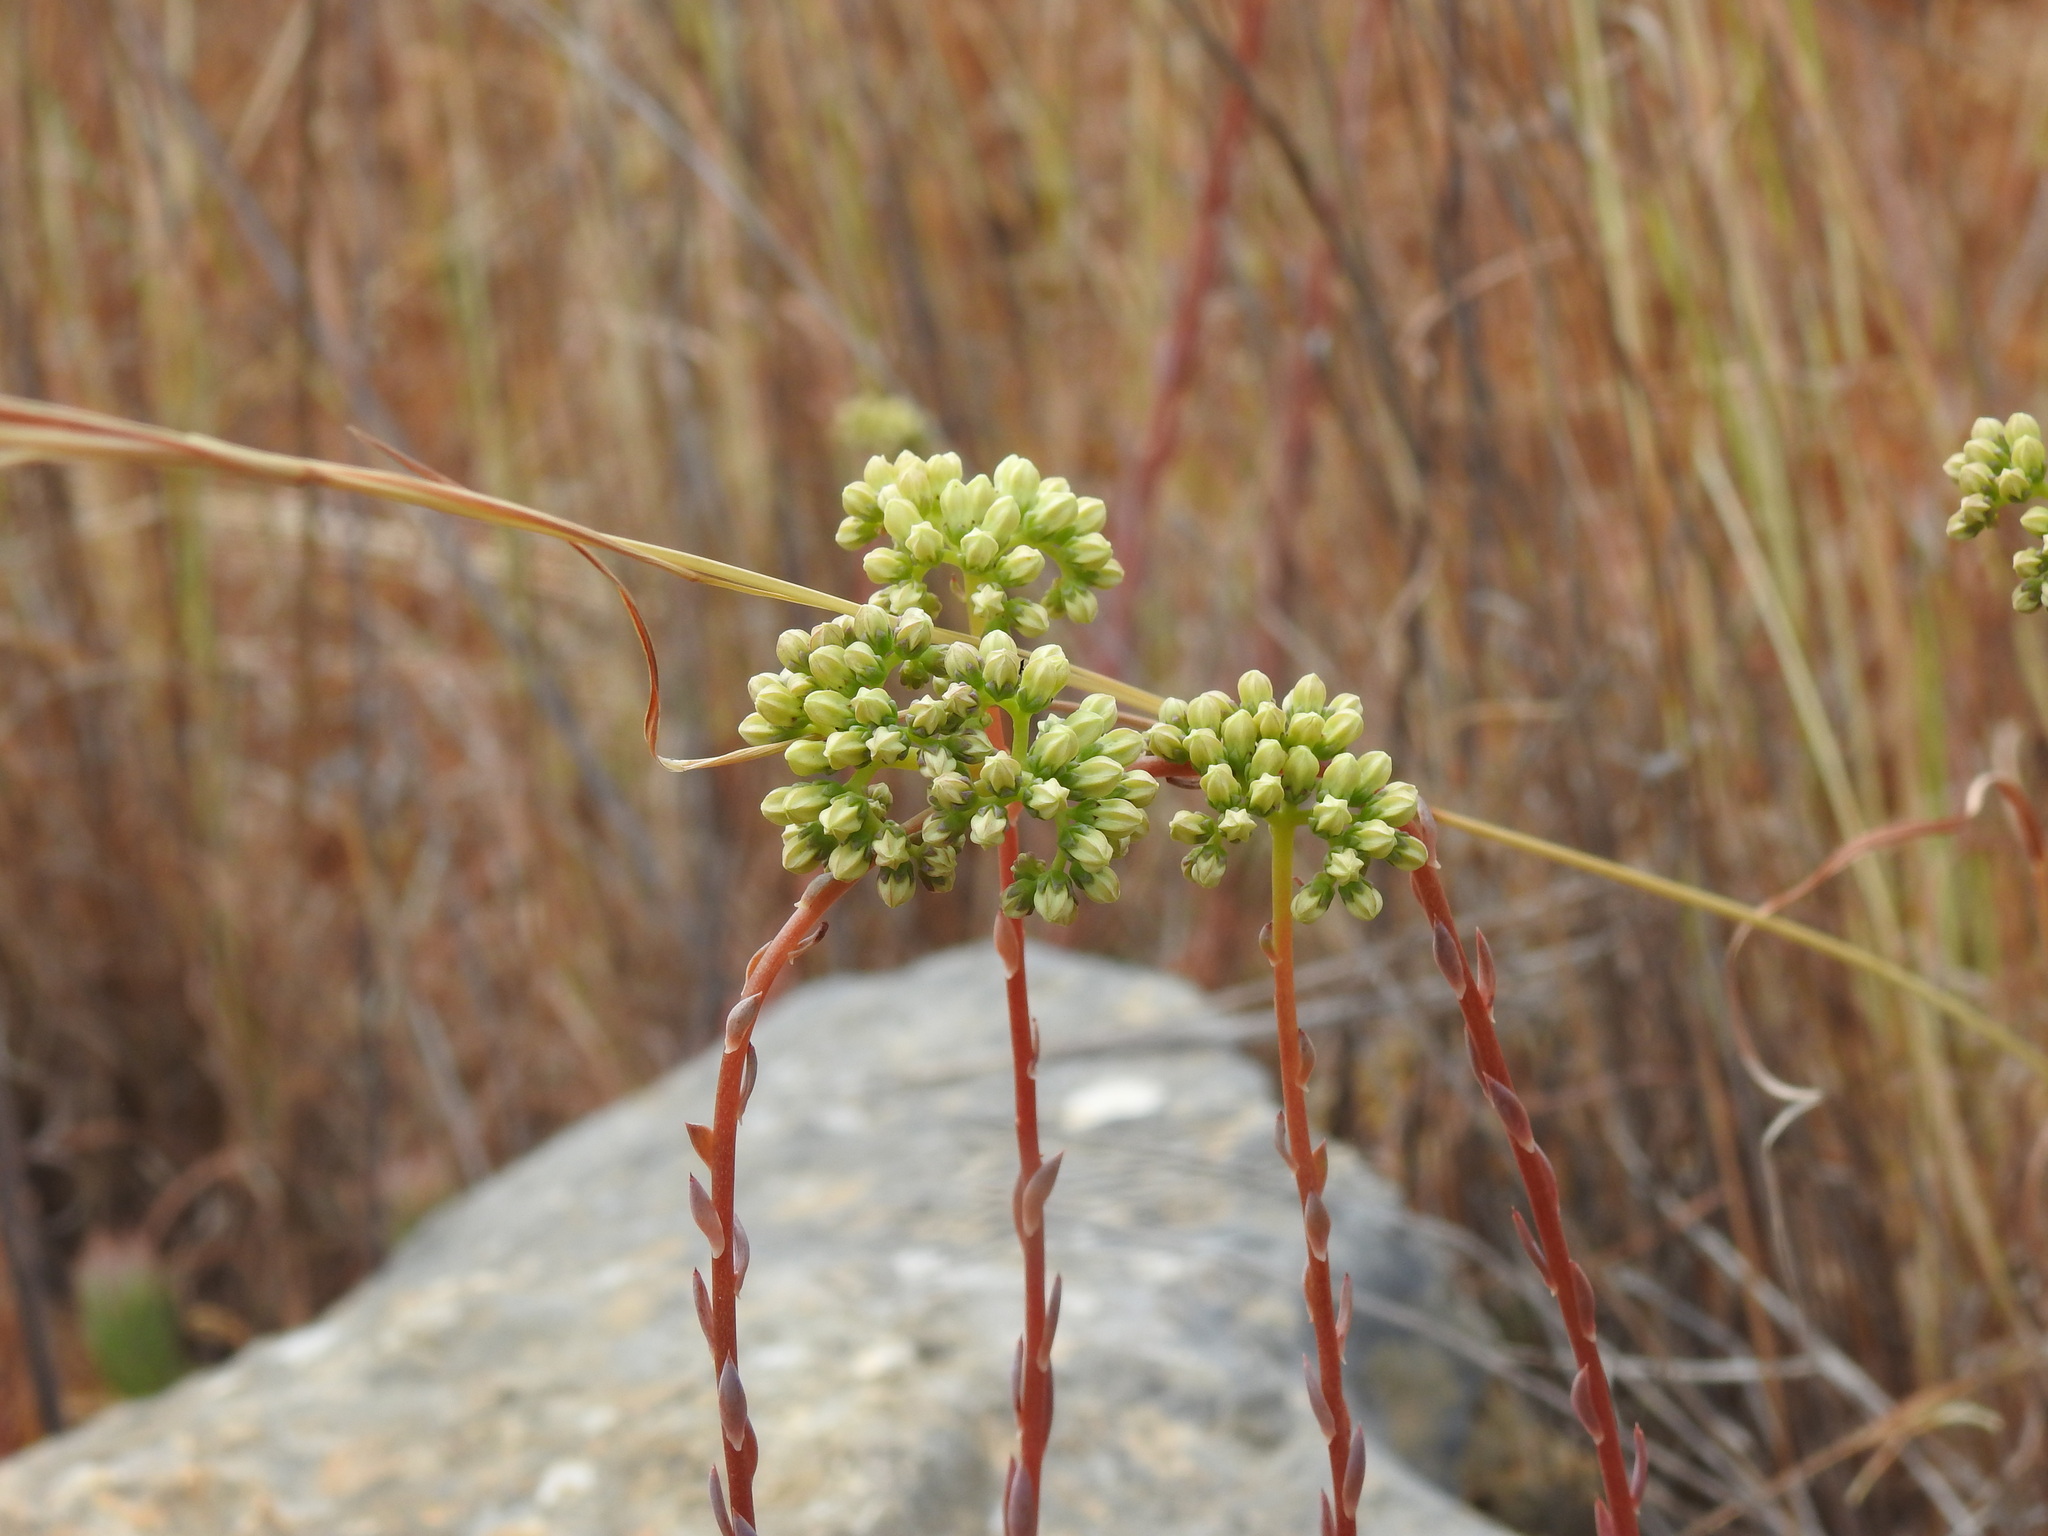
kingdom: Plantae
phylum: Tracheophyta
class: Magnoliopsida
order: Saxifragales
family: Crassulaceae
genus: Petrosedum
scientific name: Petrosedum sediforme
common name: Pale stonecrop
